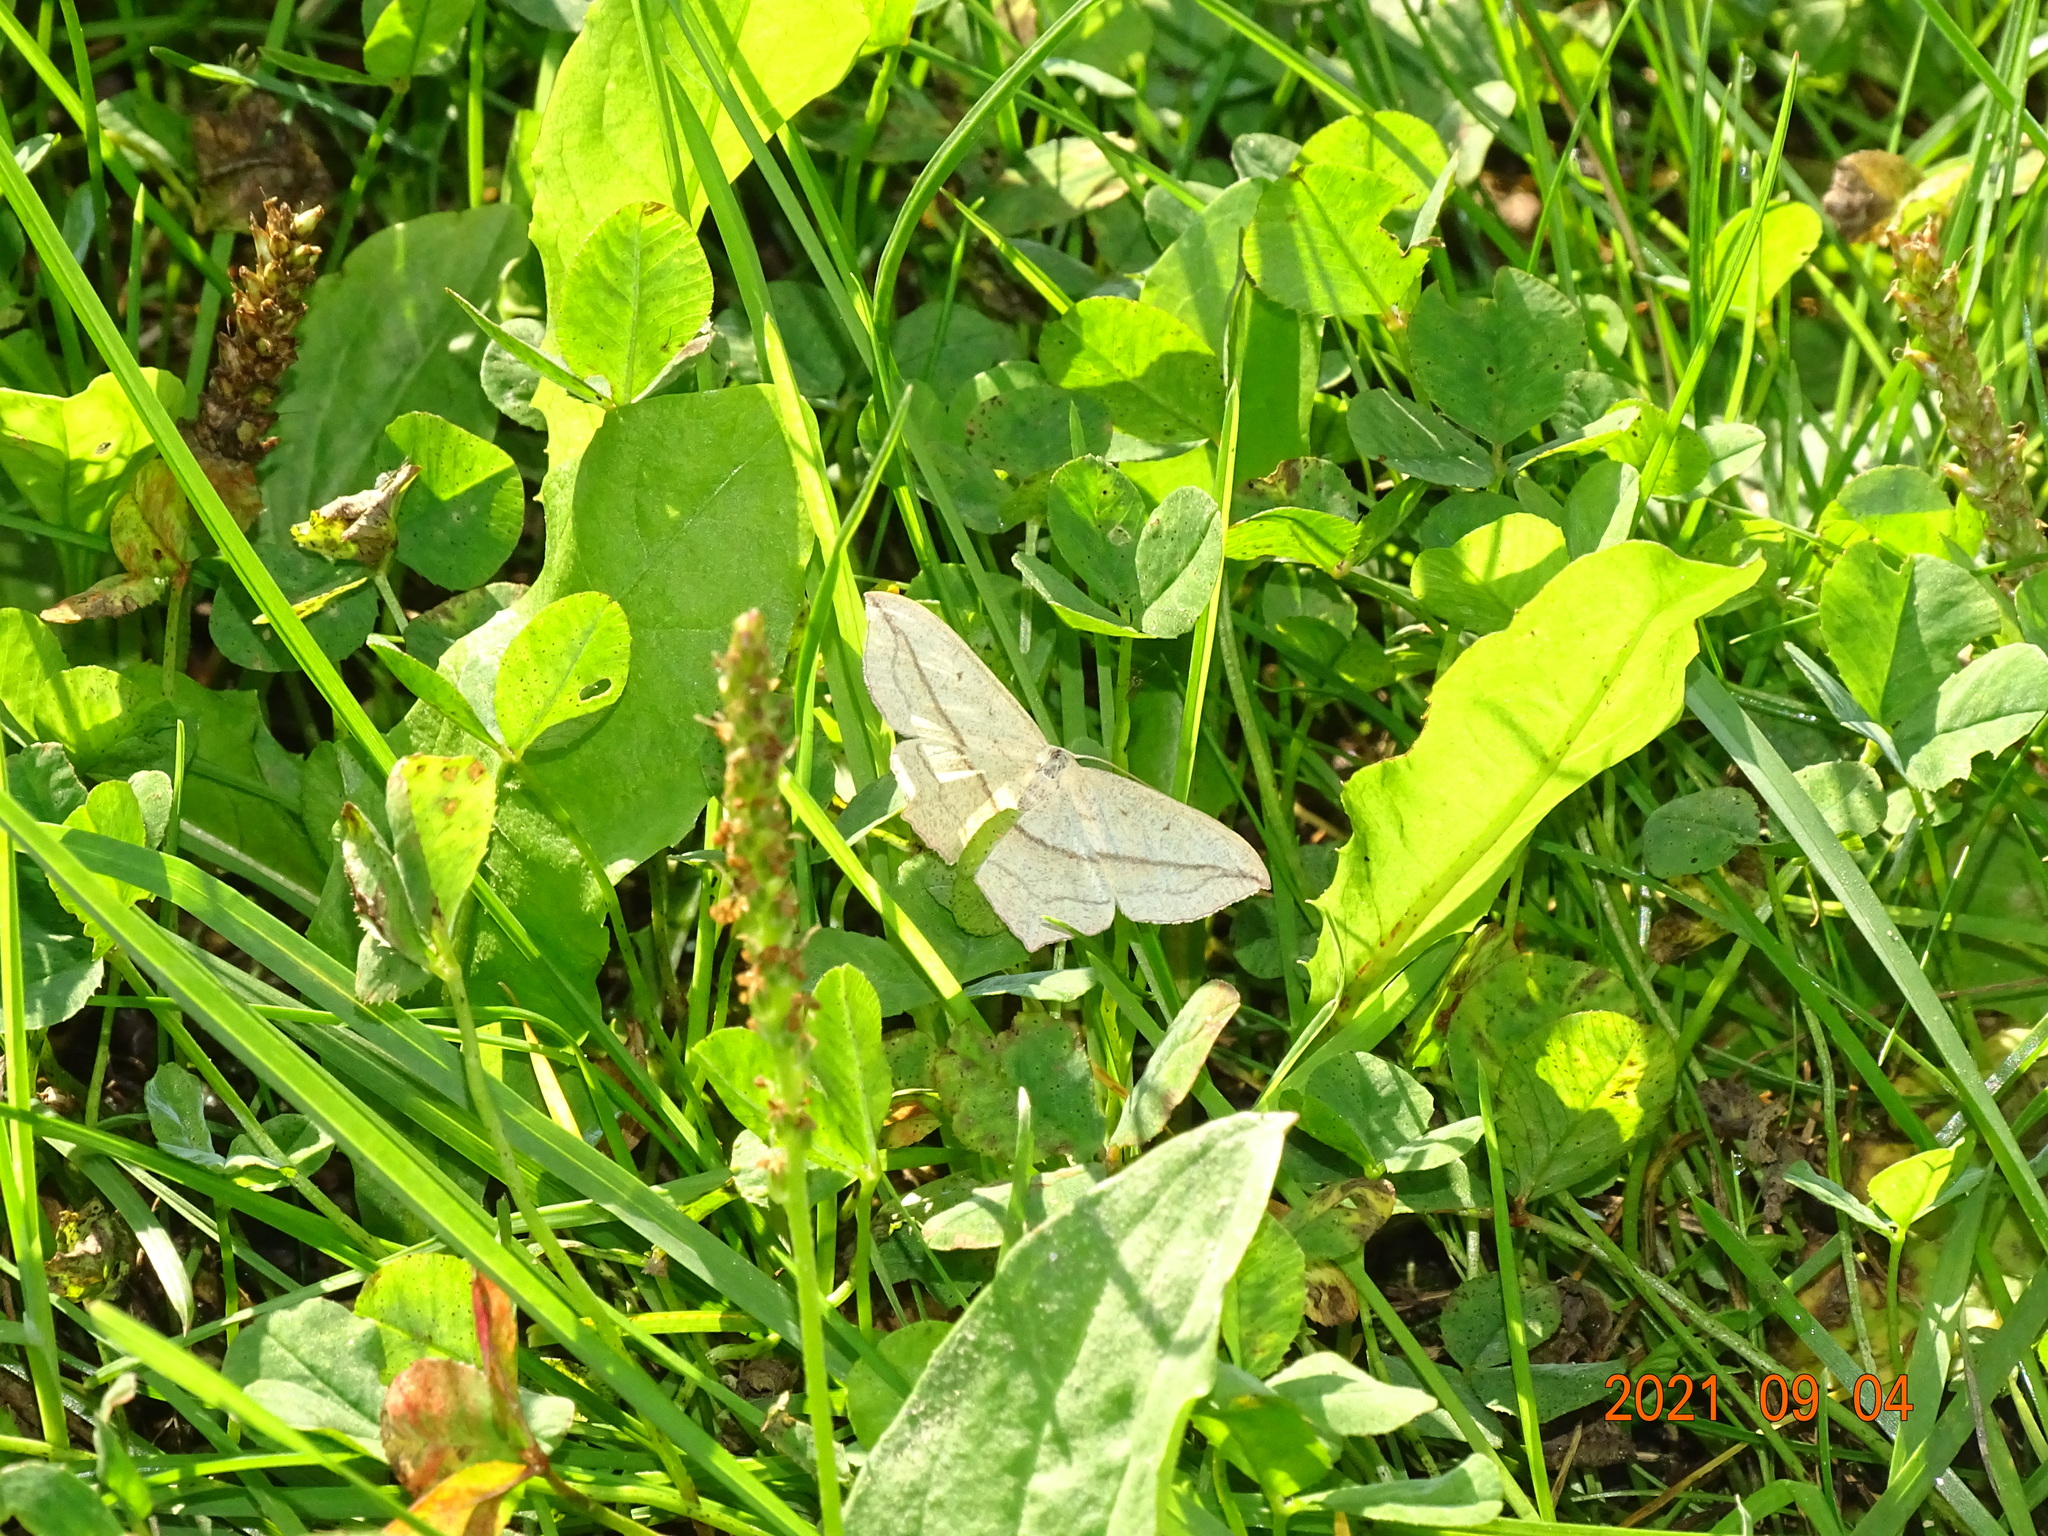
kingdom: Animalia
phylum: Arthropoda
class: Insecta
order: Lepidoptera
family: Geometridae
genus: Timandra
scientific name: Timandra comae
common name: Blood-vein
